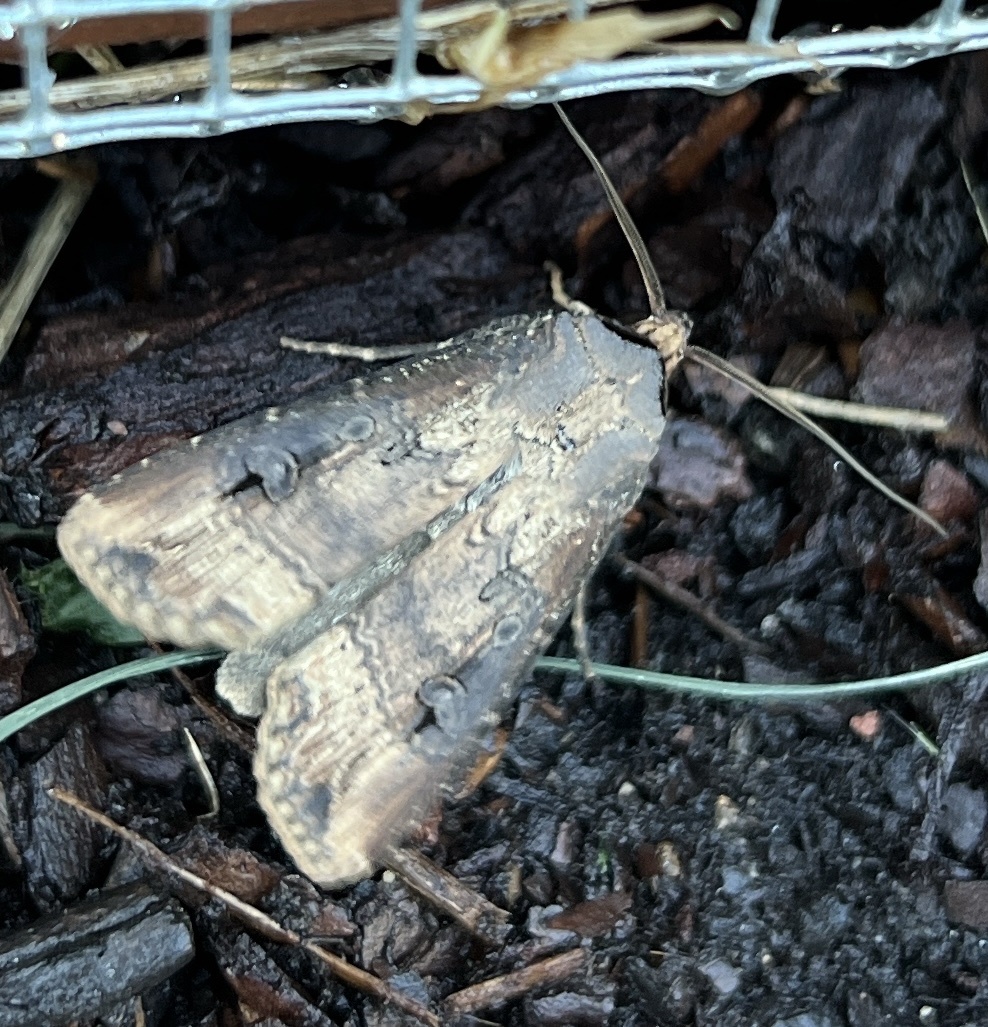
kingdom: Animalia
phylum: Arthropoda
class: Insecta
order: Lepidoptera
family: Noctuidae
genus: Agrotis
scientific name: Agrotis ipsilon
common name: Dark sword-grass
